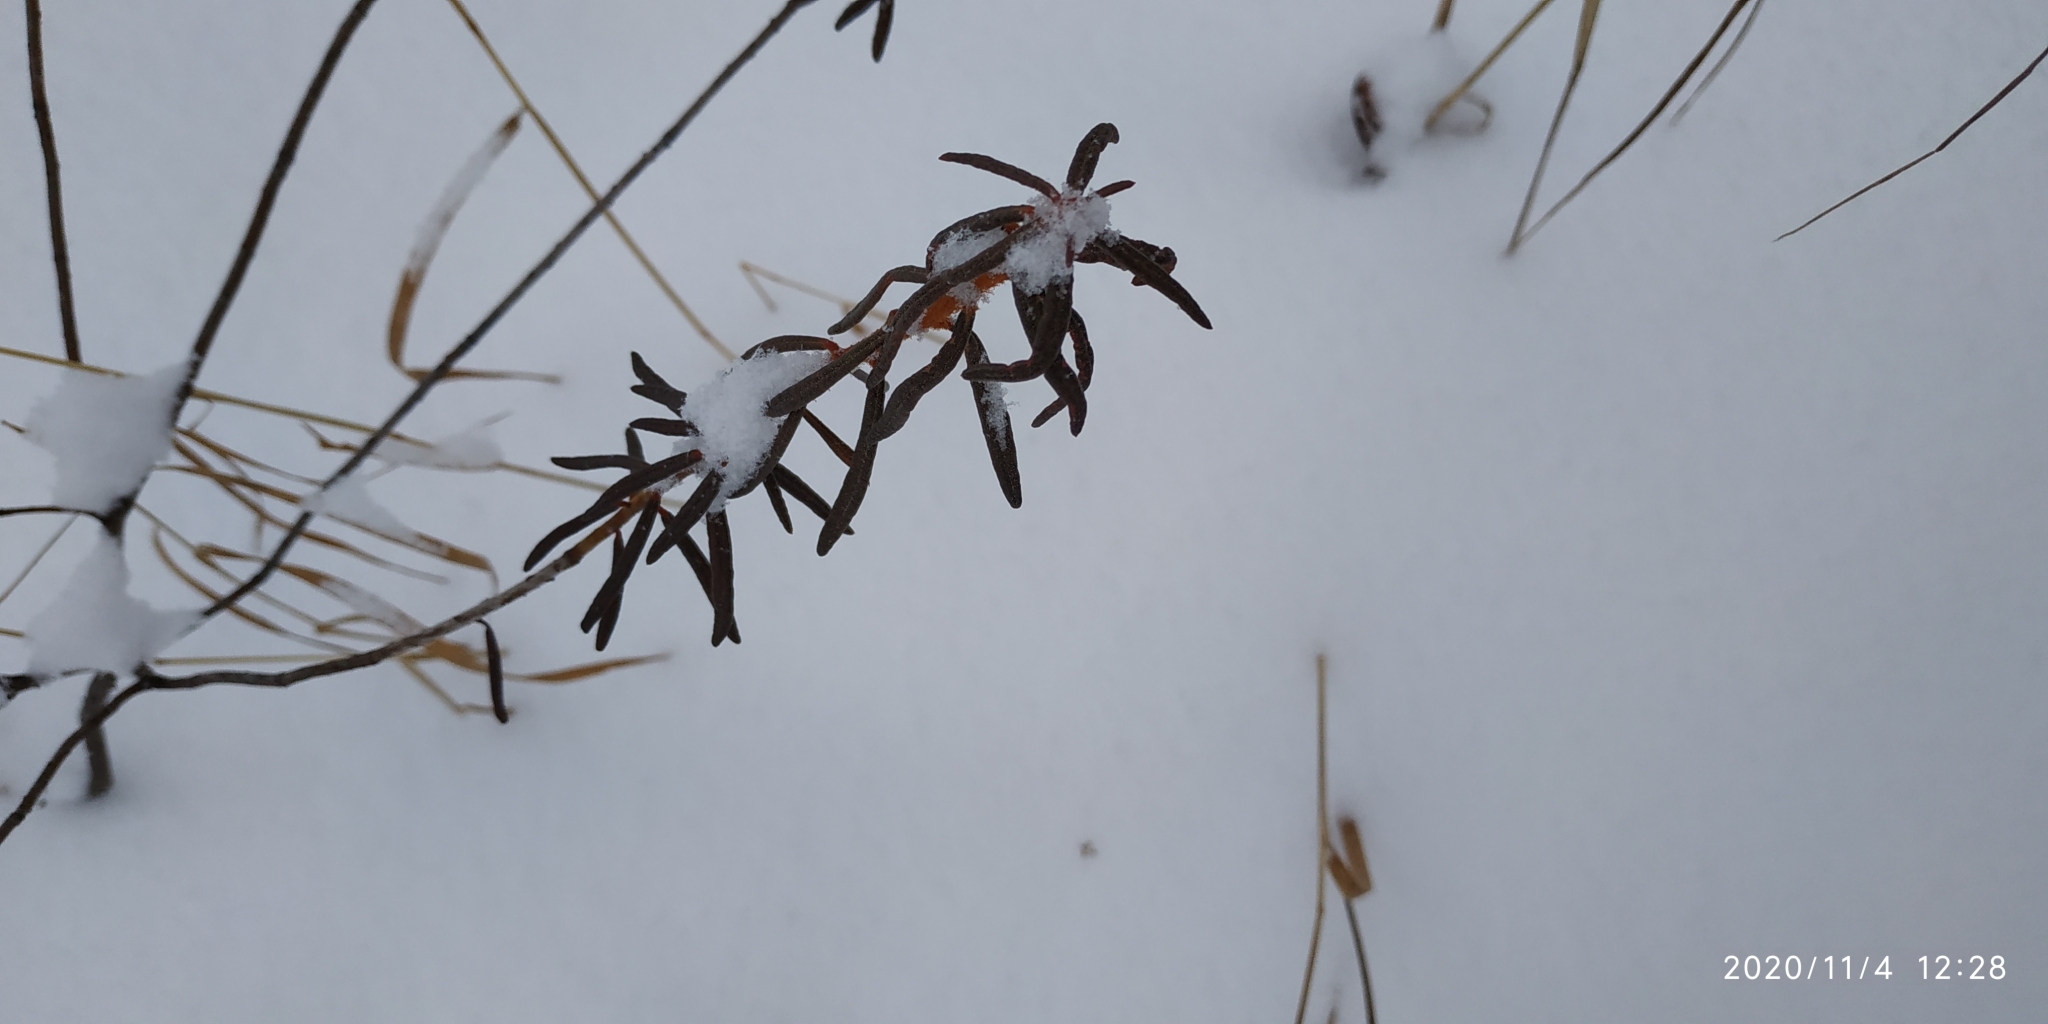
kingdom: Plantae
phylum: Tracheophyta
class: Magnoliopsida
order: Ericales
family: Ericaceae
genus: Rhododendron
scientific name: Rhododendron tomentosum
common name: Marsh labrador tea
